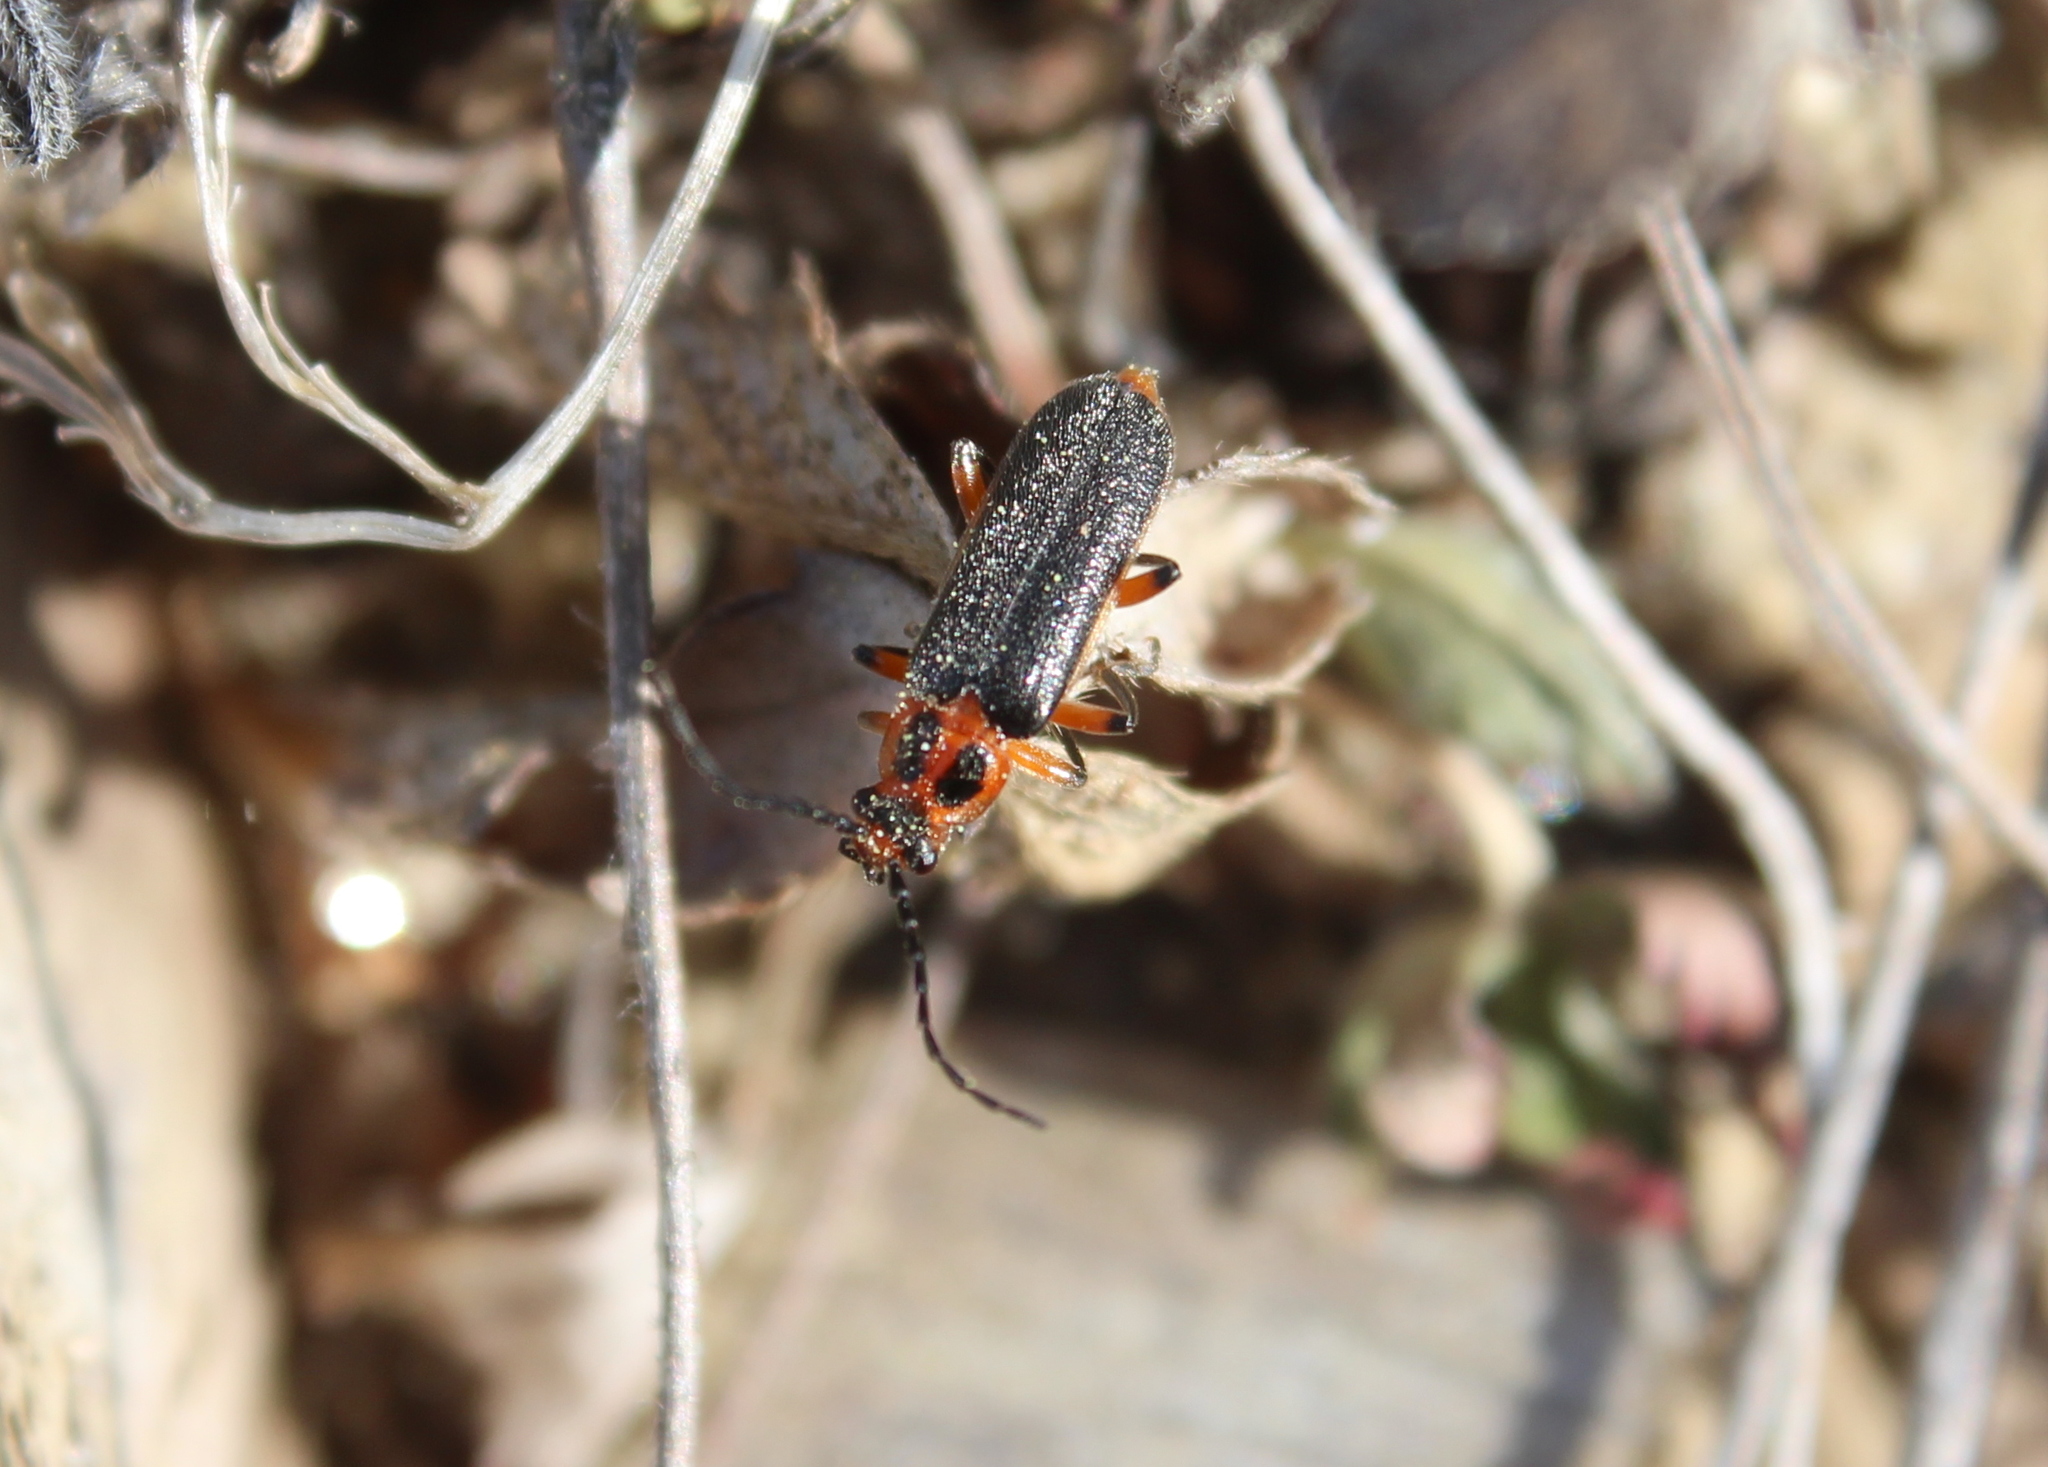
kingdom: Animalia
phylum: Arthropoda
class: Insecta
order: Coleoptera
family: Cantharidae
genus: Atalantycha
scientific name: Atalantycha bilineata
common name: Two-lined leatherwing
